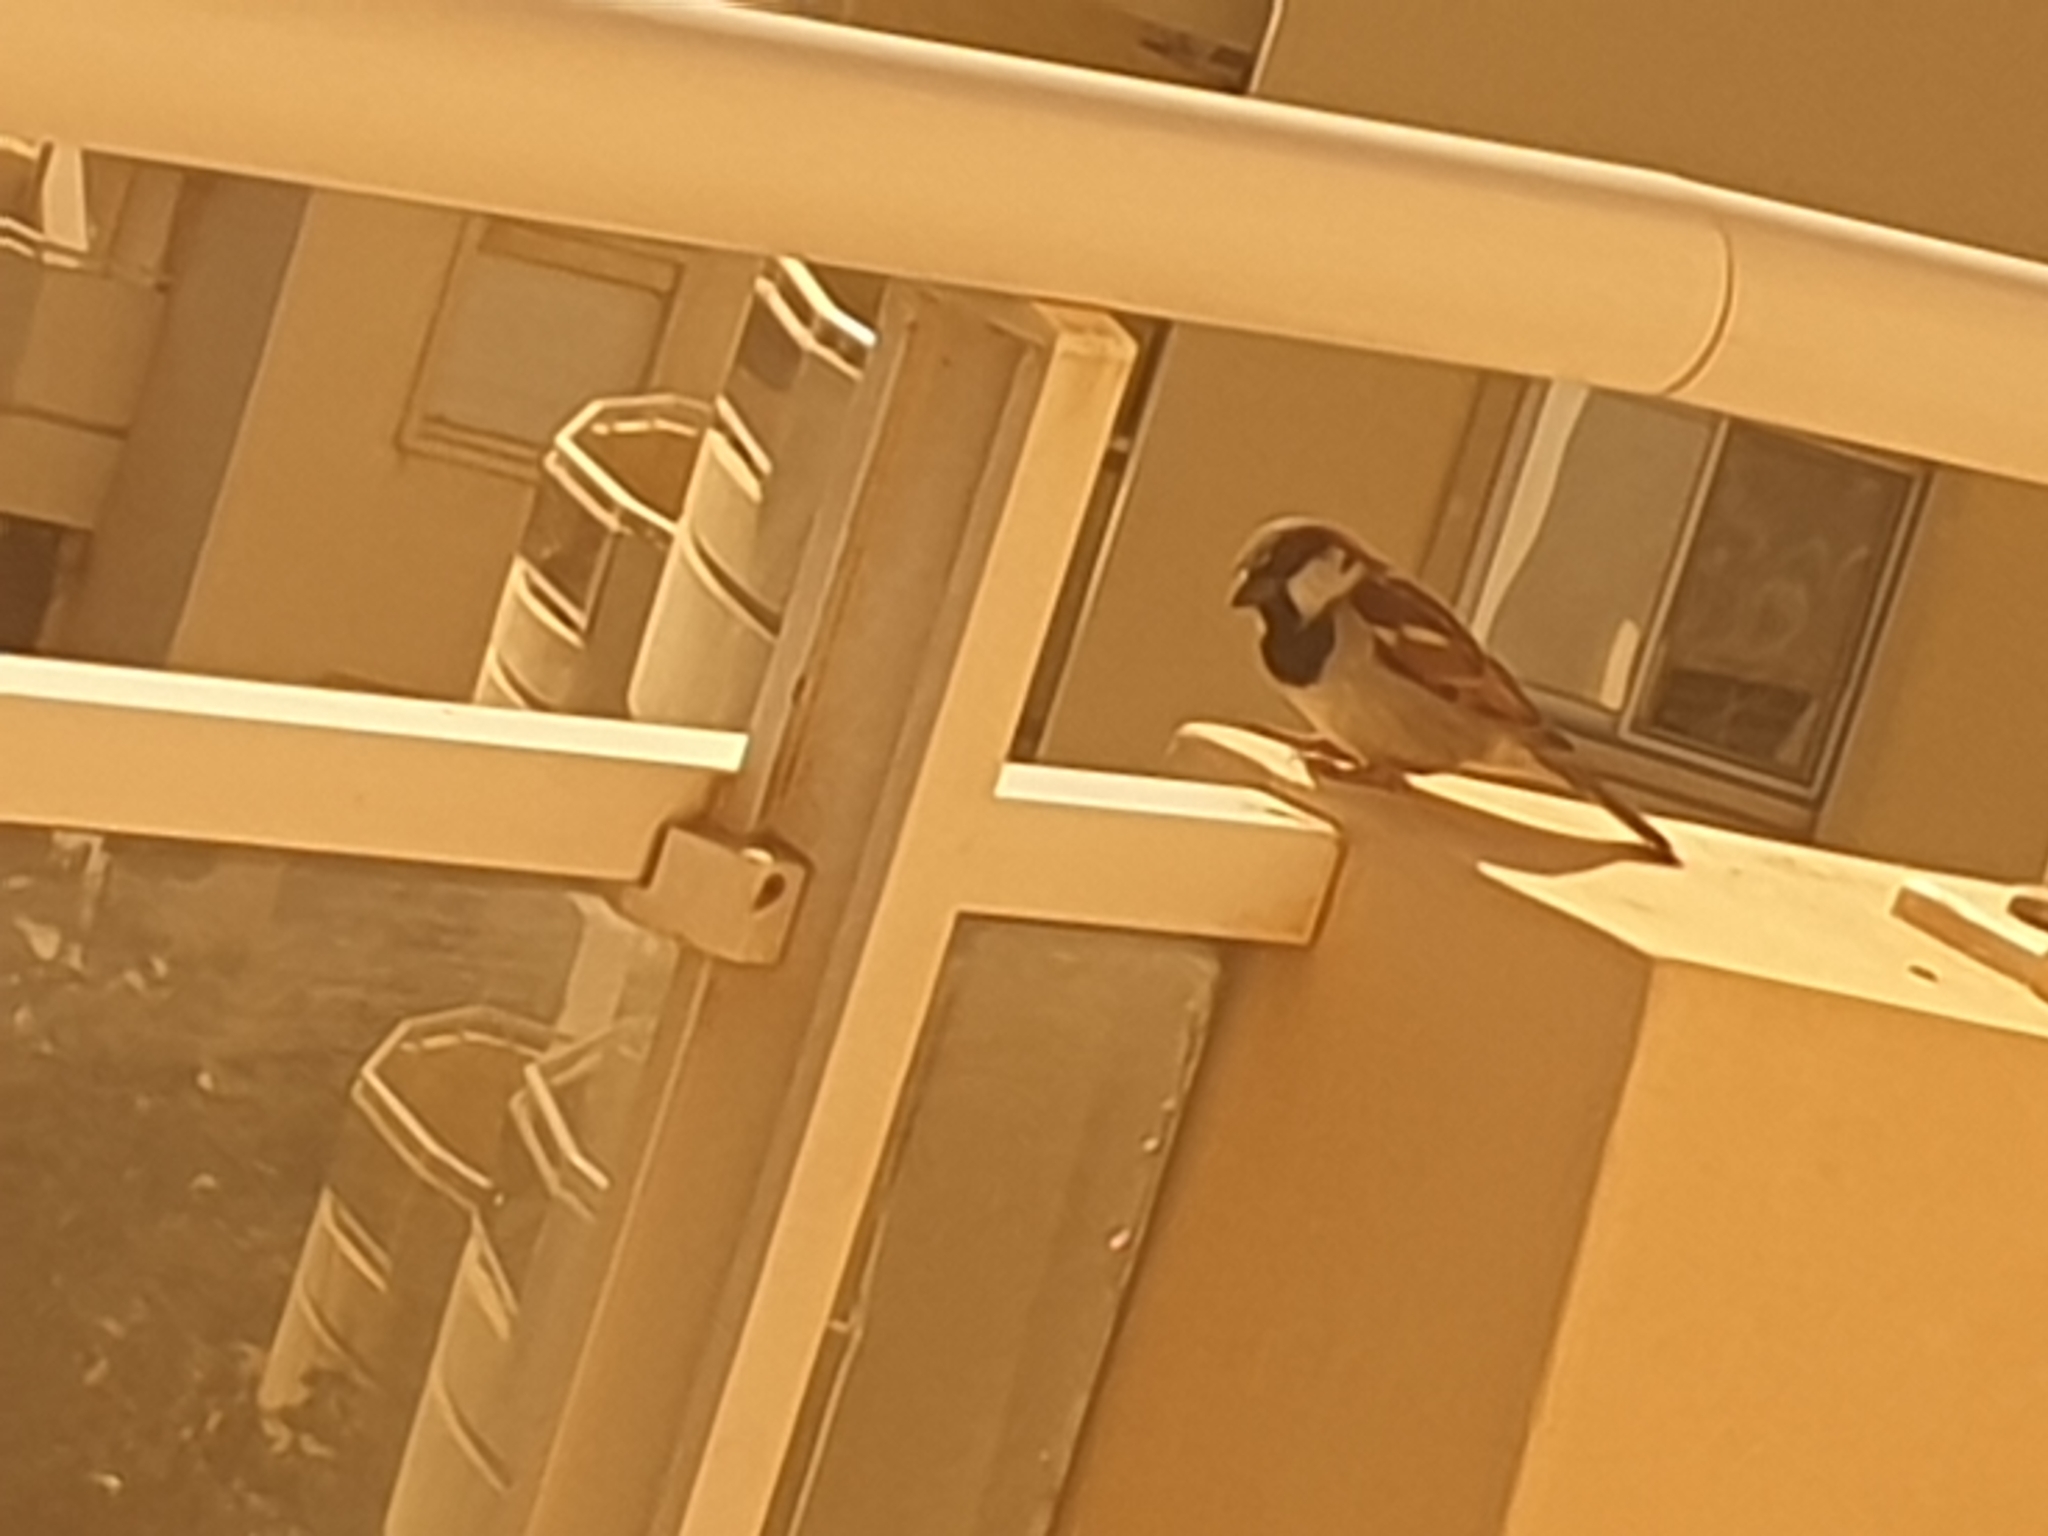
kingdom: Animalia
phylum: Chordata
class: Aves
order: Passeriformes
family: Passeridae
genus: Passer
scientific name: Passer domesticus
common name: House sparrow
